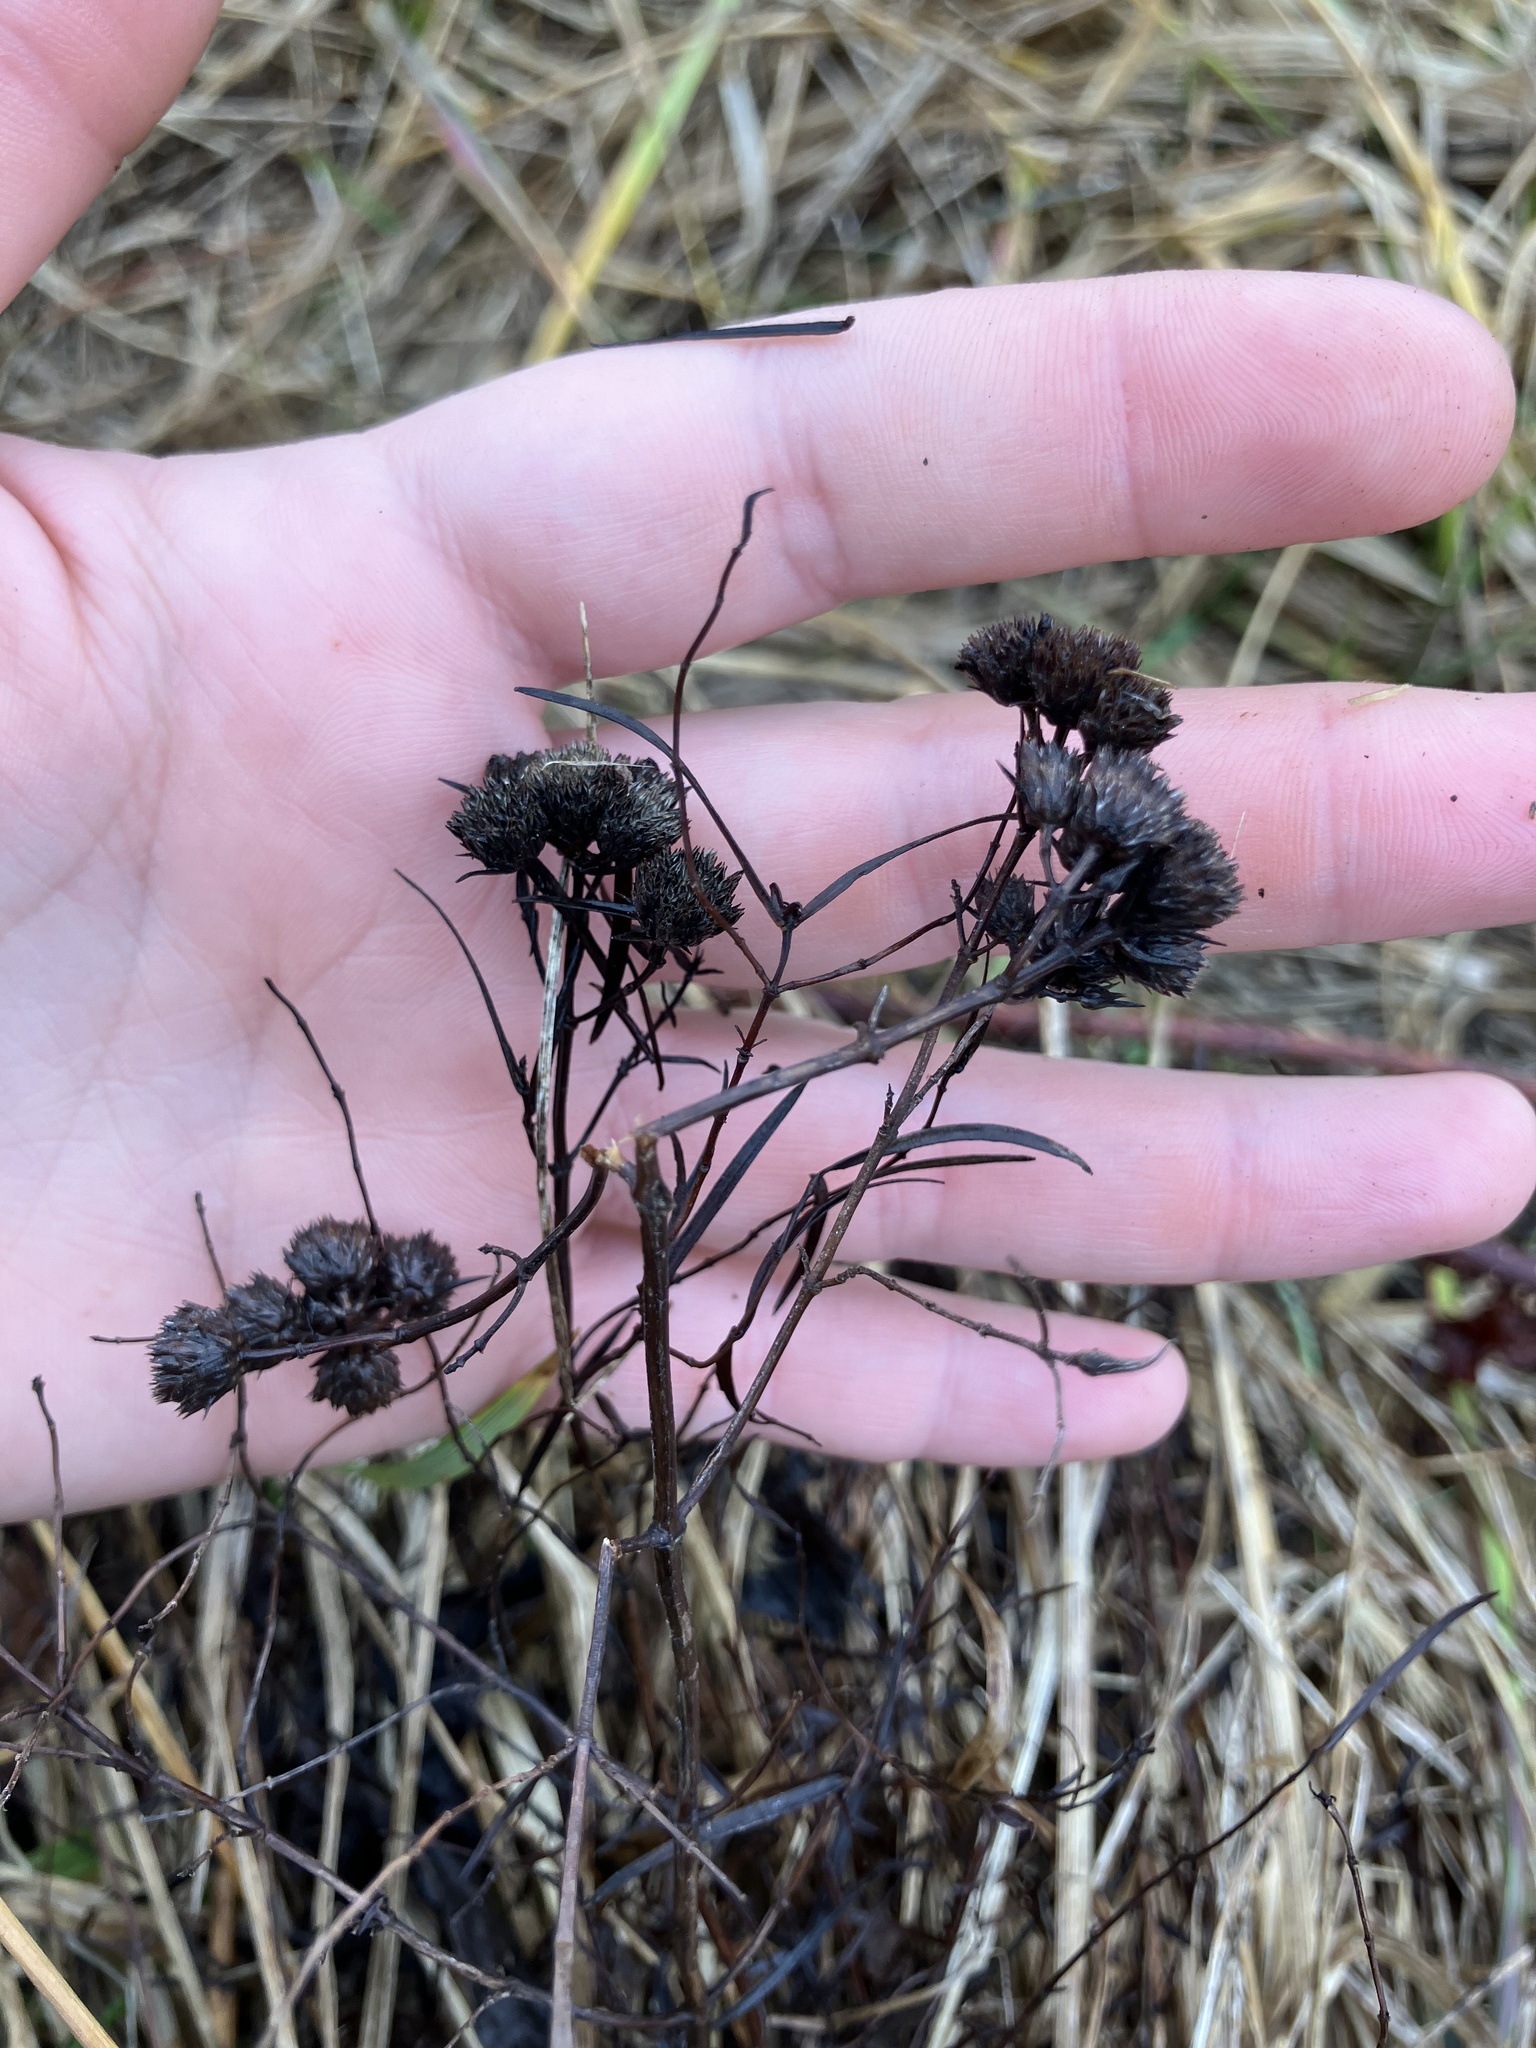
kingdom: Plantae
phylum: Tracheophyta
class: Magnoliopsida
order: Lamiales
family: Lamiaceae
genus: Pycnanthemum
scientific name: Pycnanthemum tenuifolium
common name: Narrow-leaf mountain-mint
